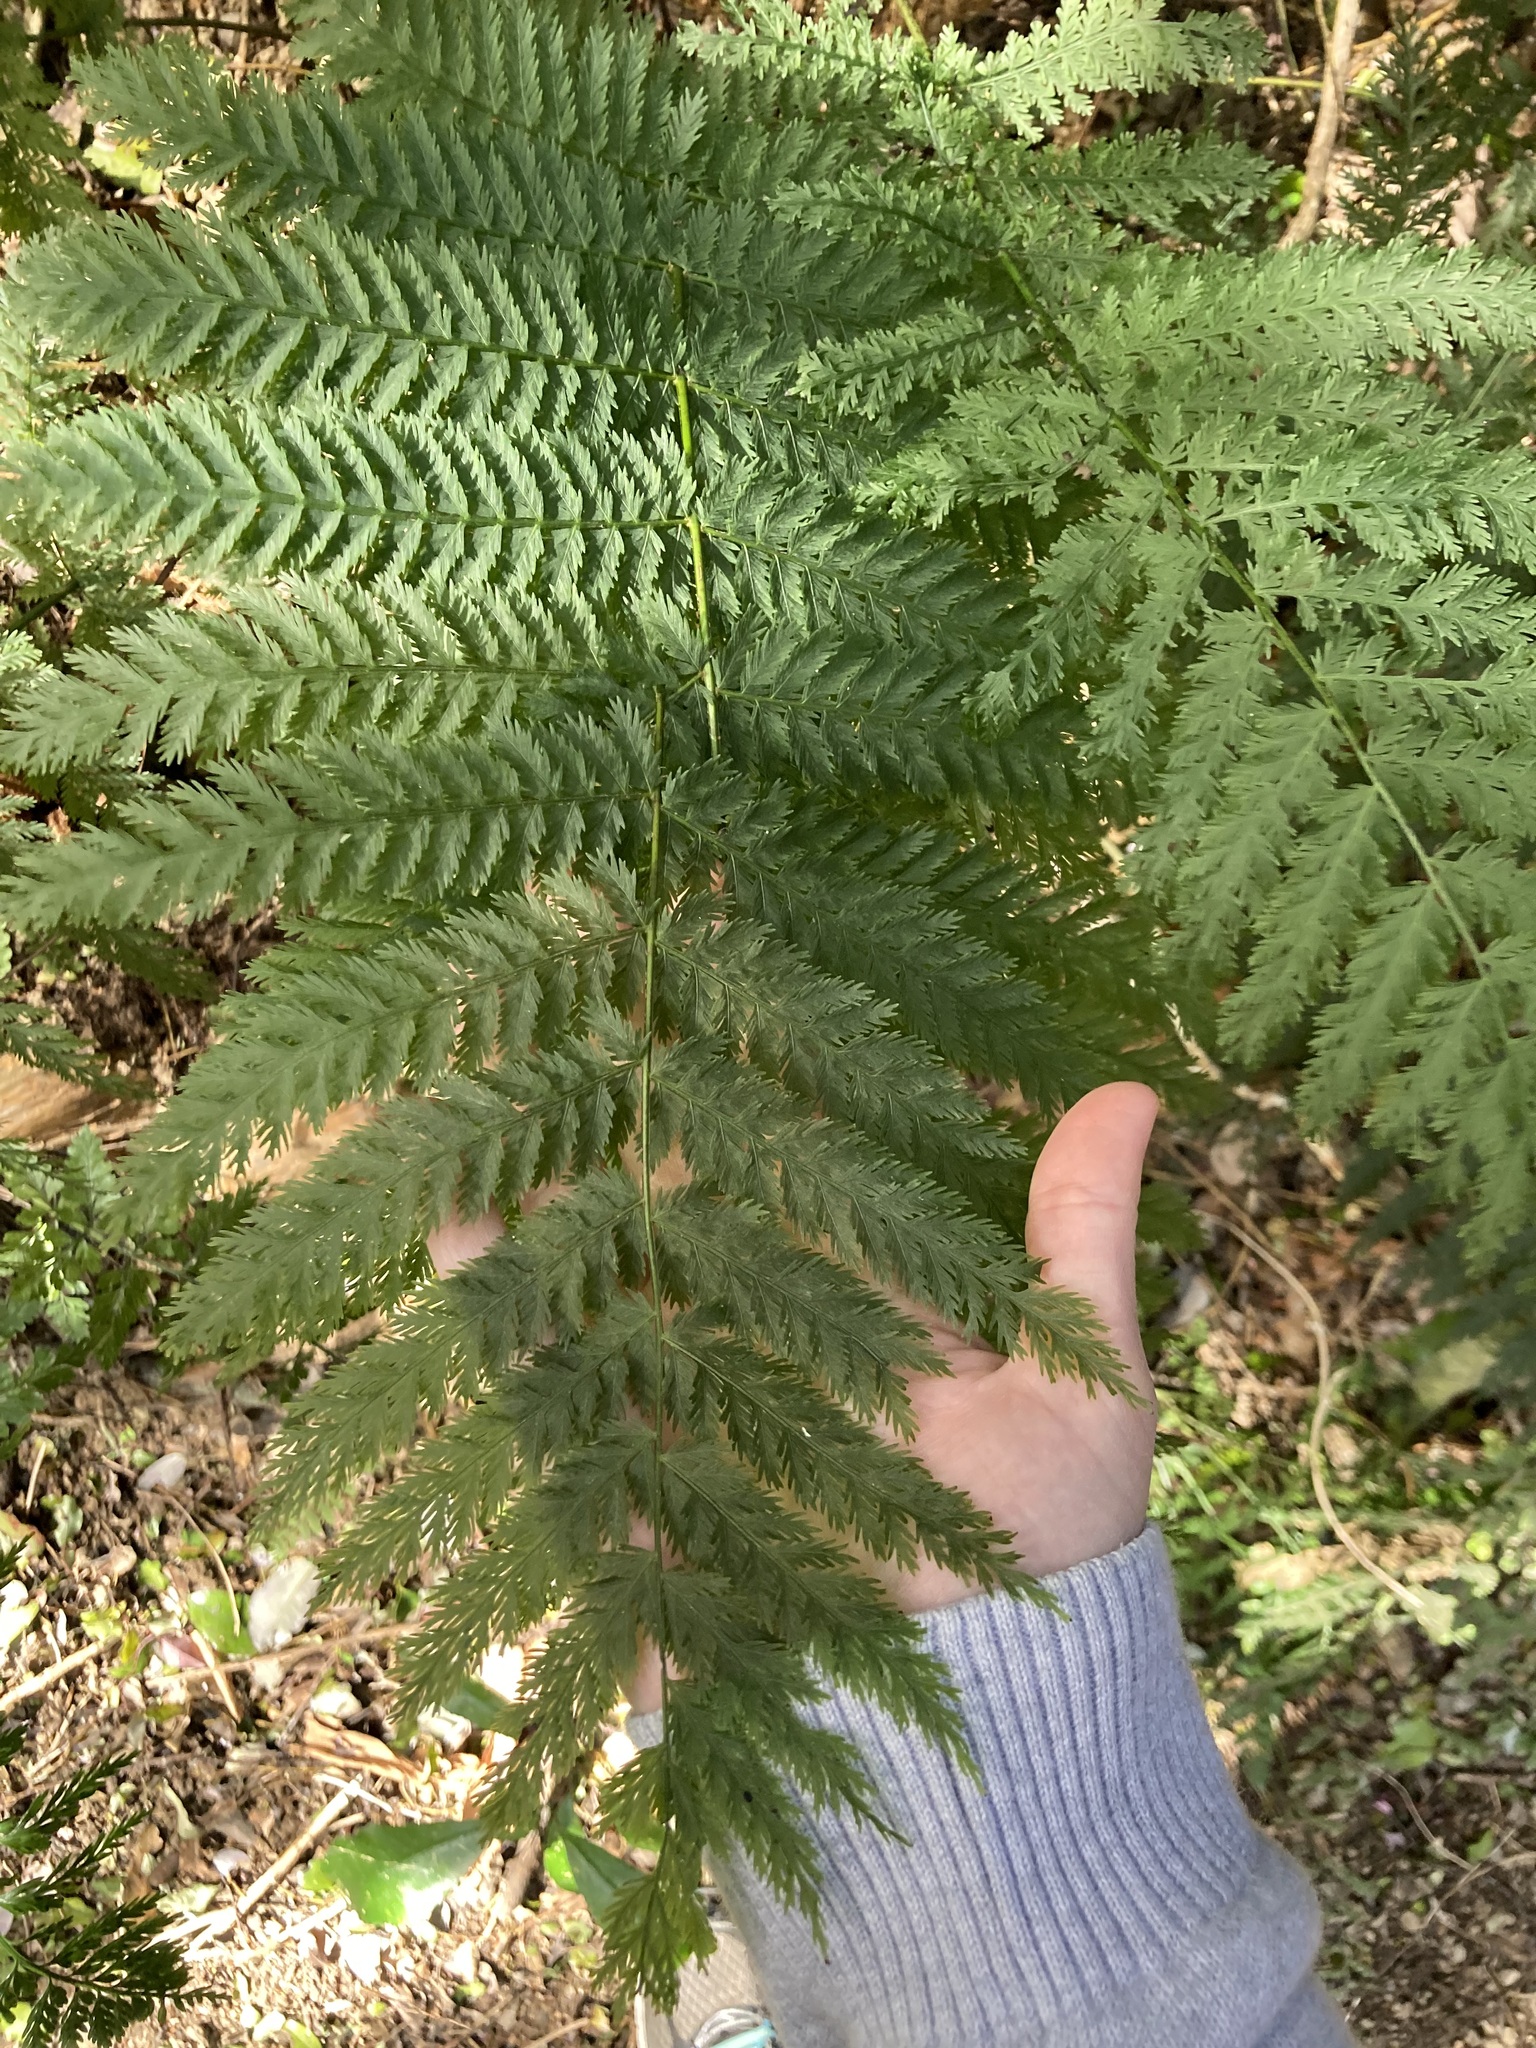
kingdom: Plantae
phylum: Tracheophyta
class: Polypodiopsida
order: Osmundales
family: Osmundaceae
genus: Leptopteris
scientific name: Leptopteris hymenophylloides
